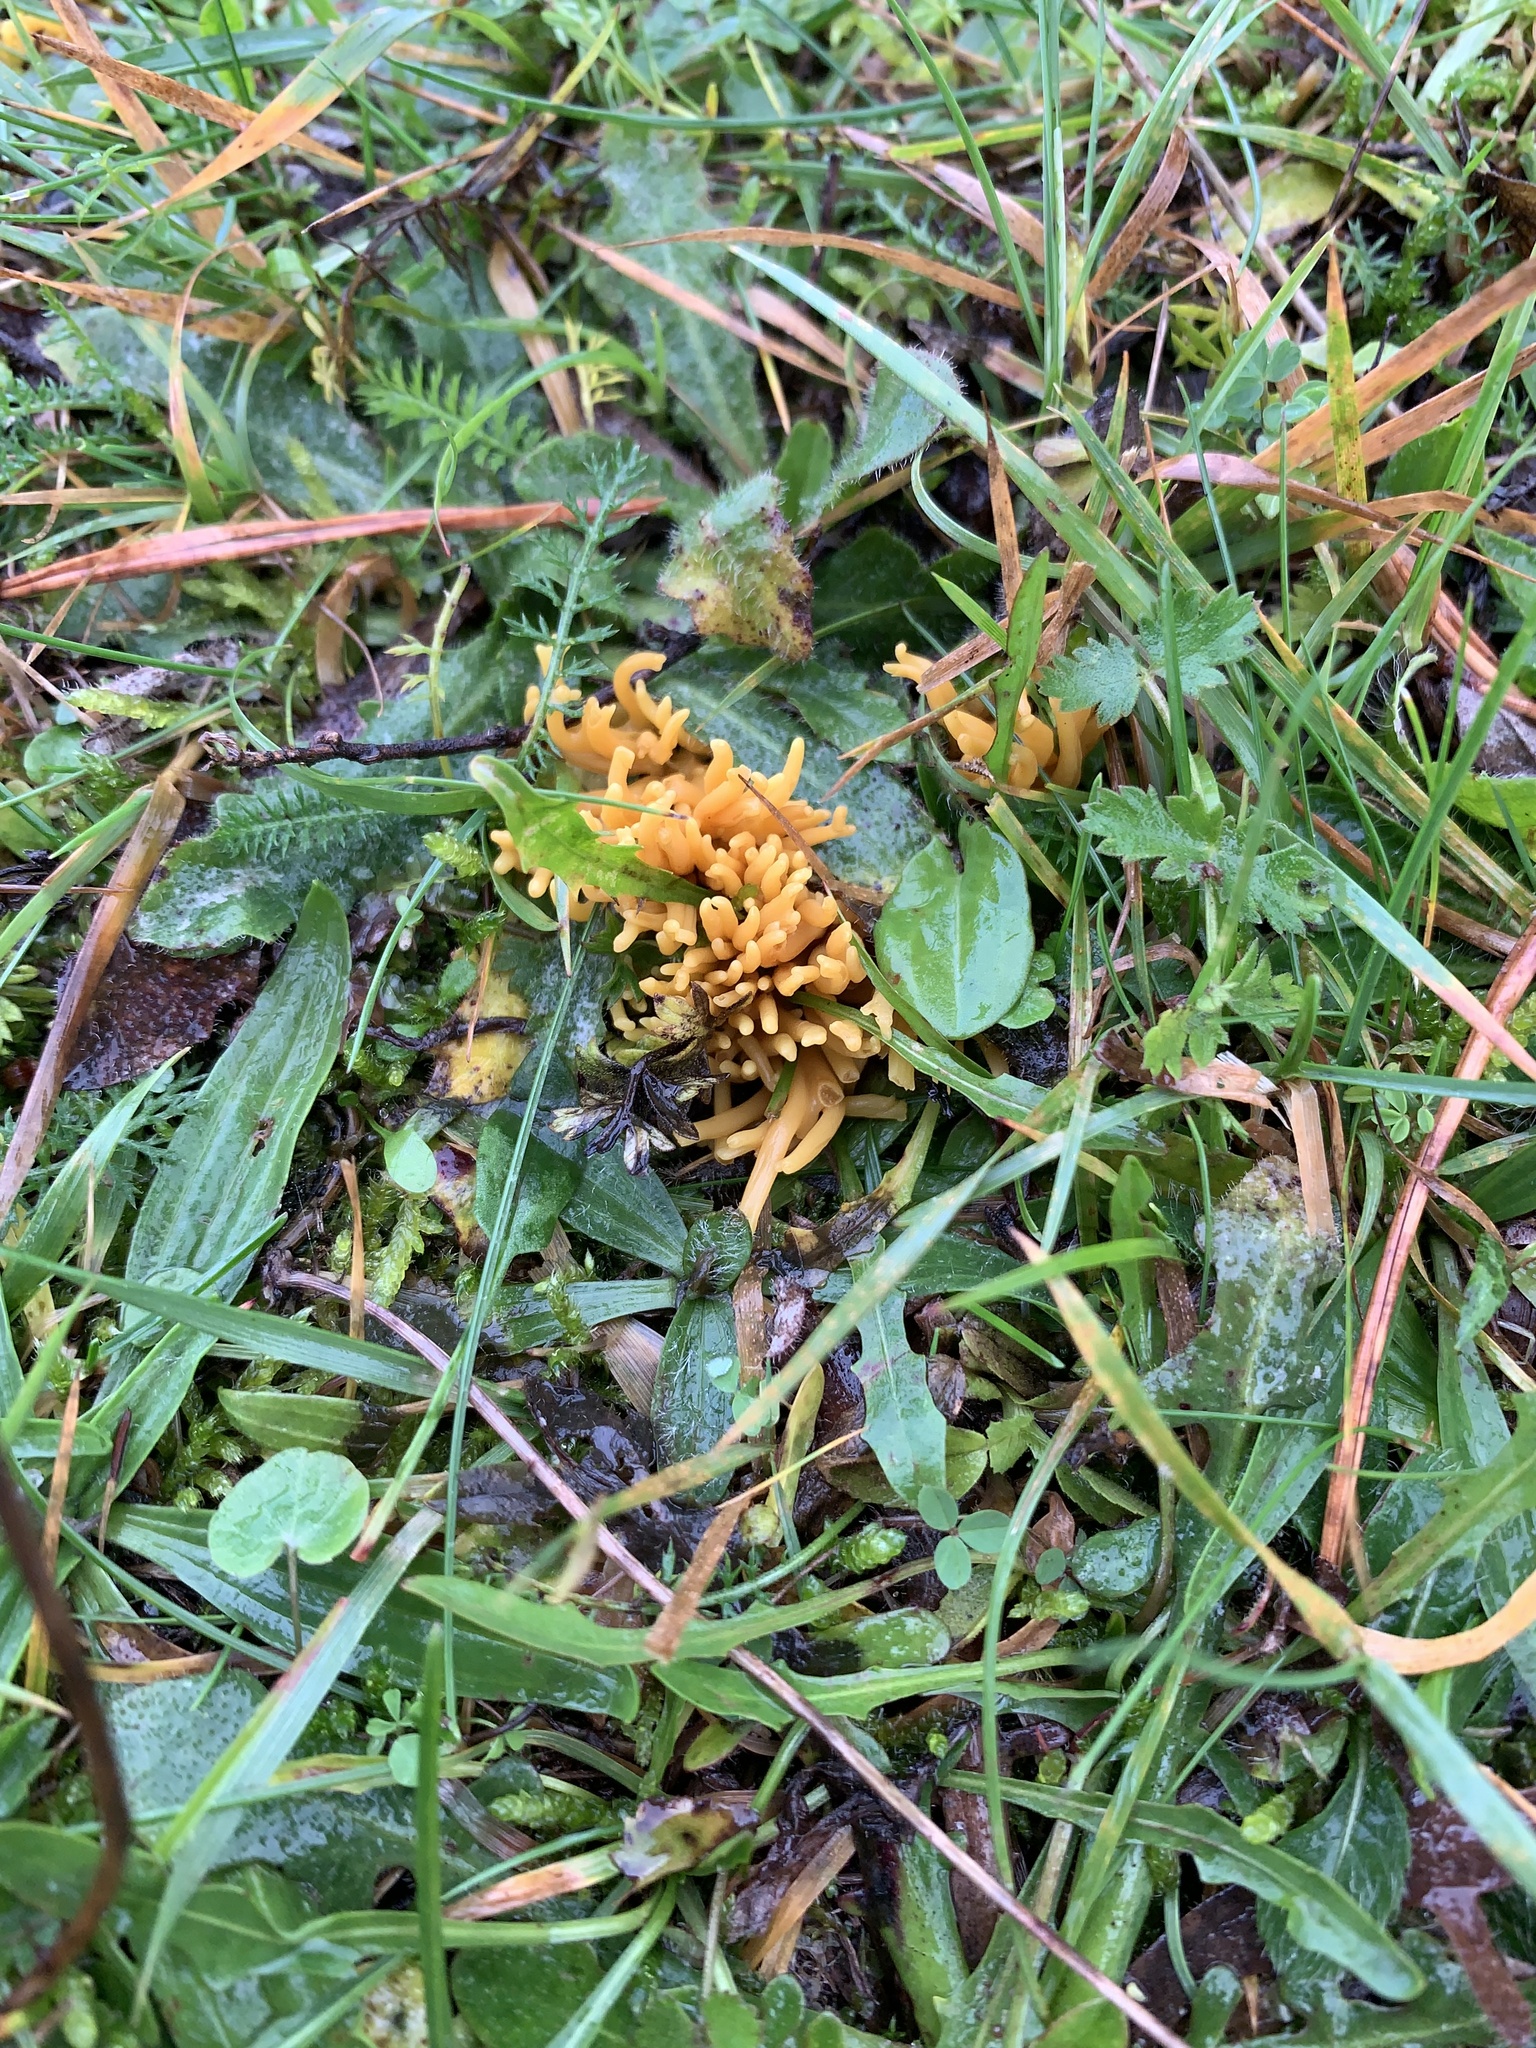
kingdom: Fungi
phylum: Basidiomycota
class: Agaricomycetes
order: Agaricales
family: Clavariaceae
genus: Clavulinopsis
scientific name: Clavulinopsis corniculata
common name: Meadow coral
